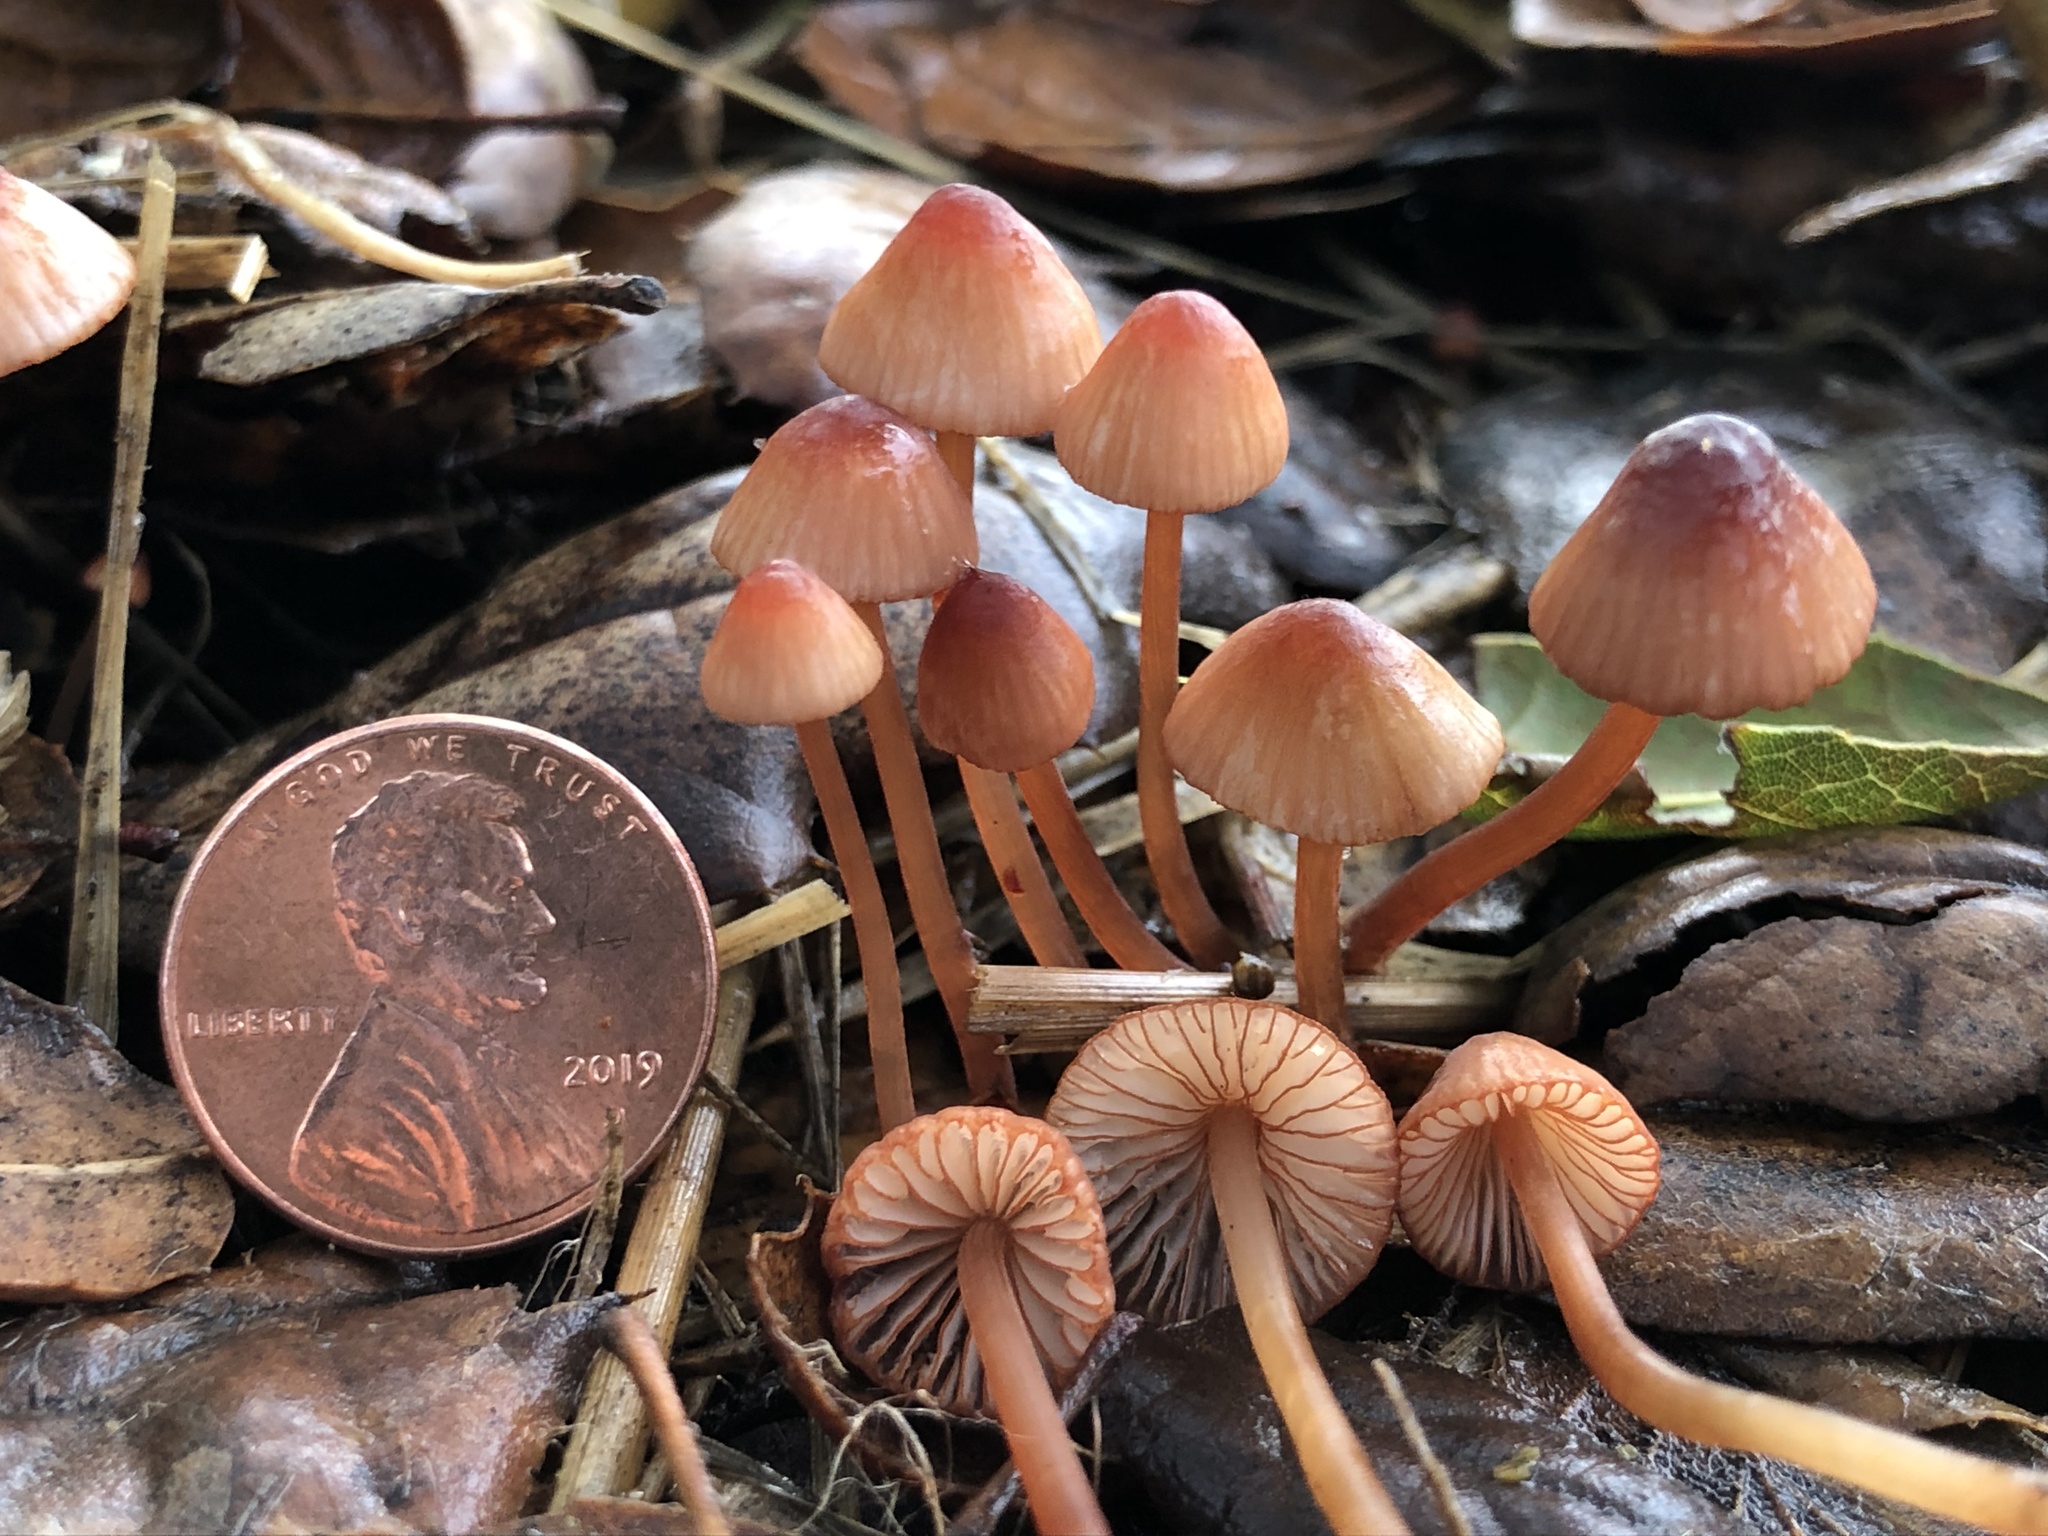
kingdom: Fungi
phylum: Basidiomycota
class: Agaricomycetes
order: Agaricales
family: Mycenaceae
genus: Mycena
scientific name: Mycena
